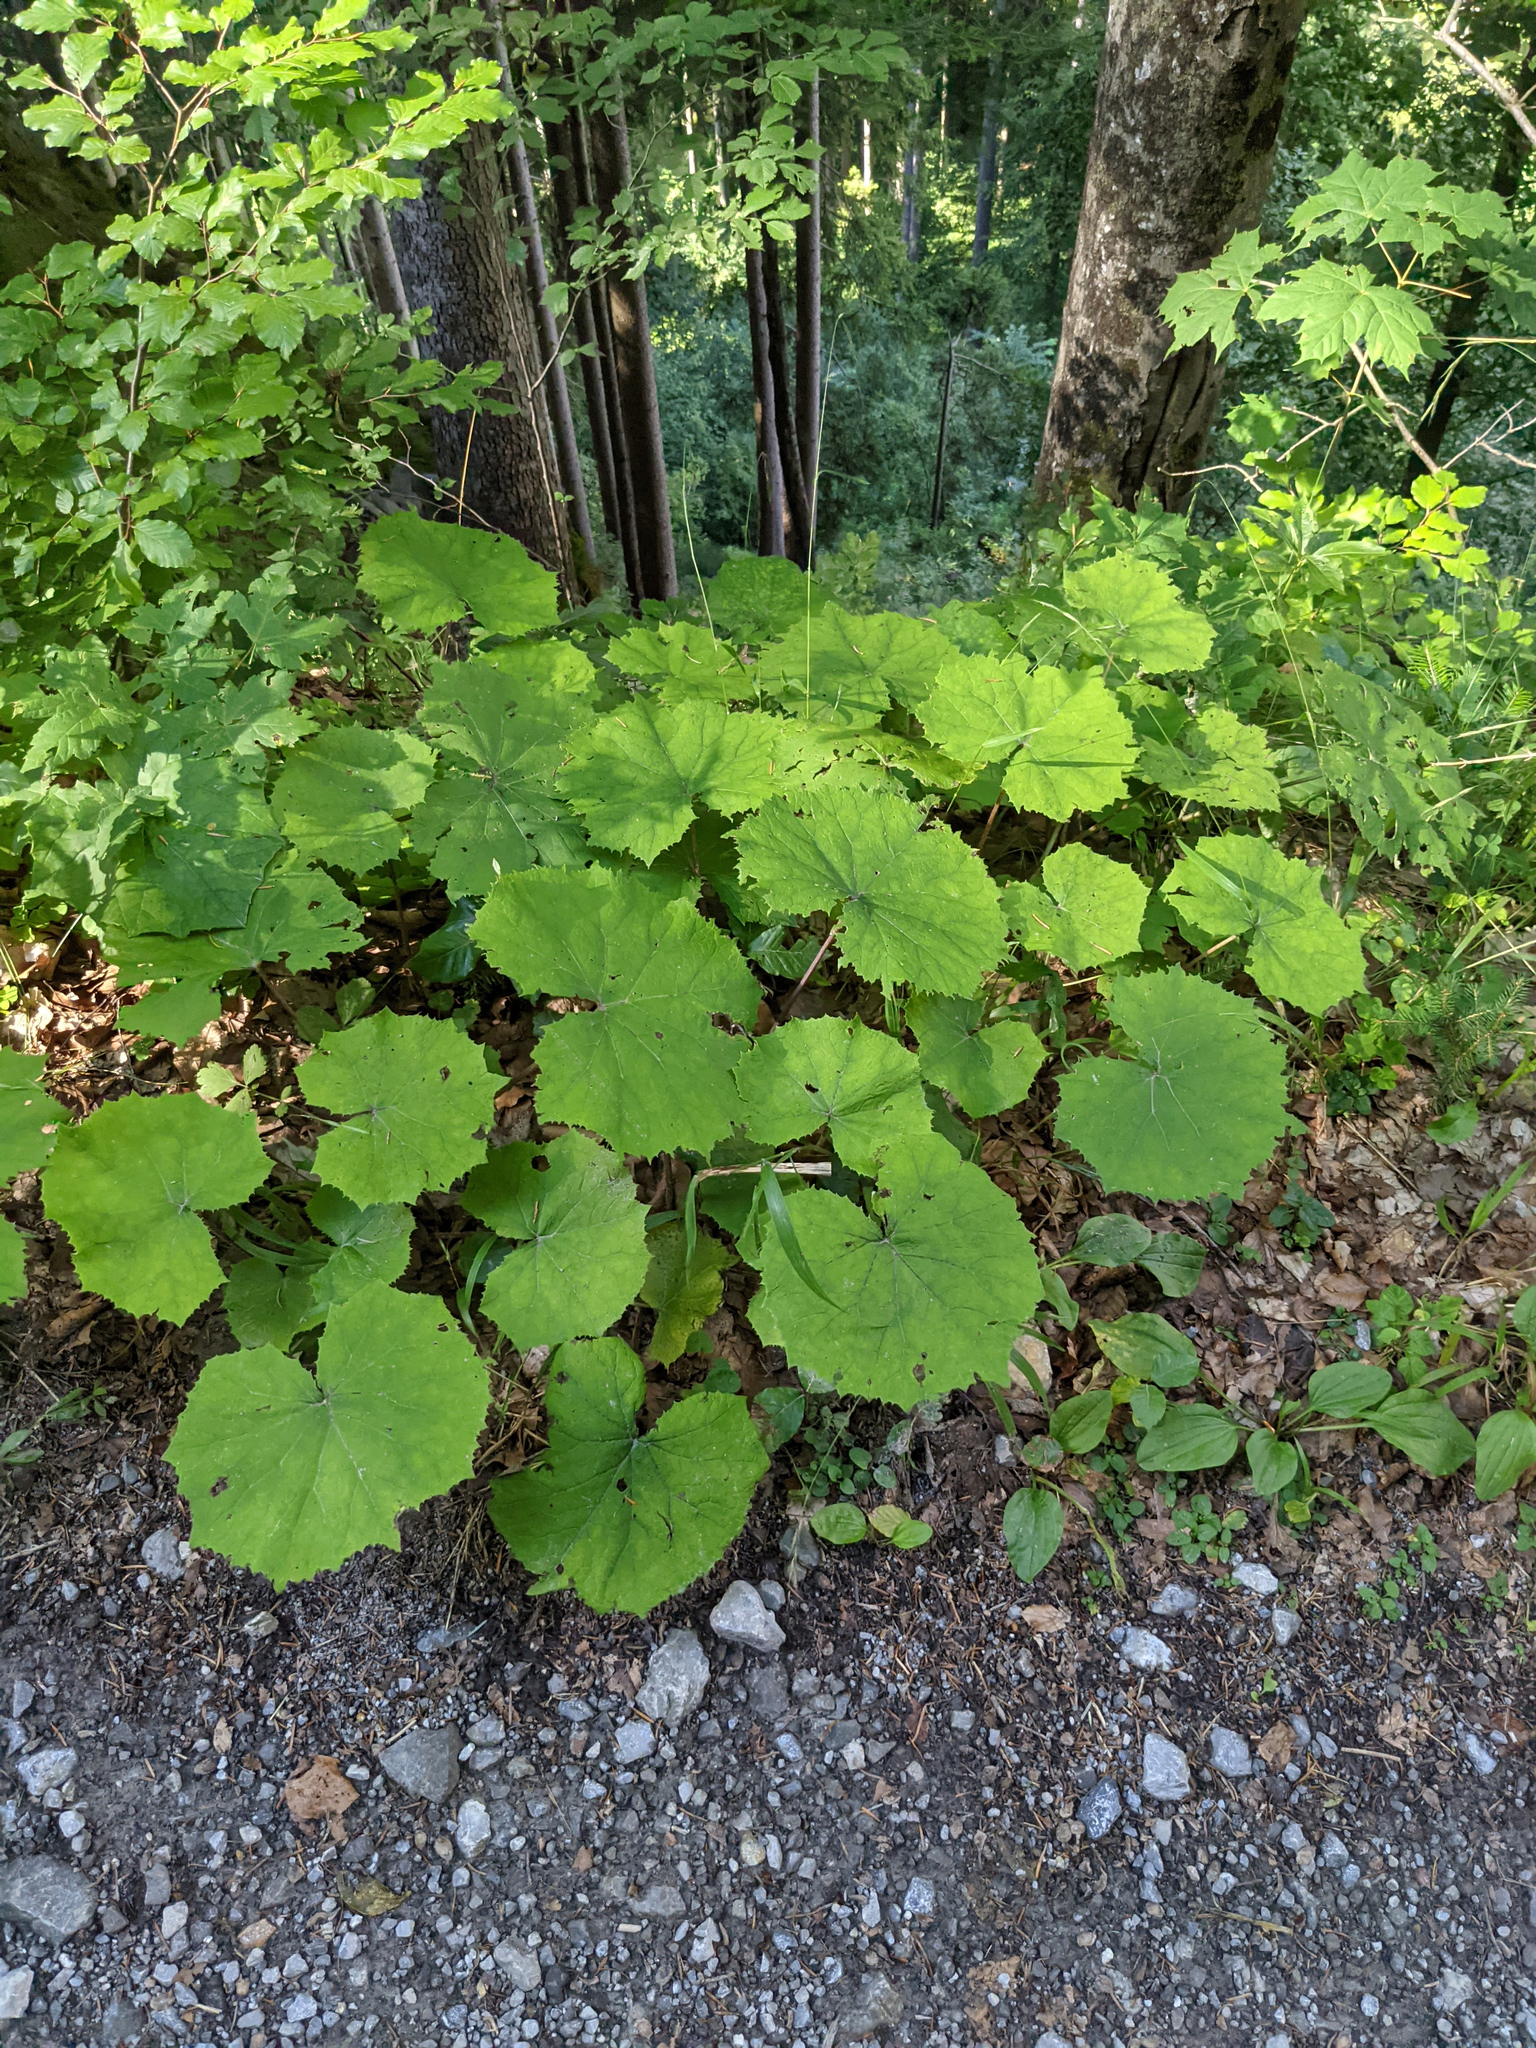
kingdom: Plantae
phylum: Tracheophyta
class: Magnoliopsida
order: Asterales
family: Asteraceae
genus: Petasites
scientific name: Petasites albus
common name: White butterbur
